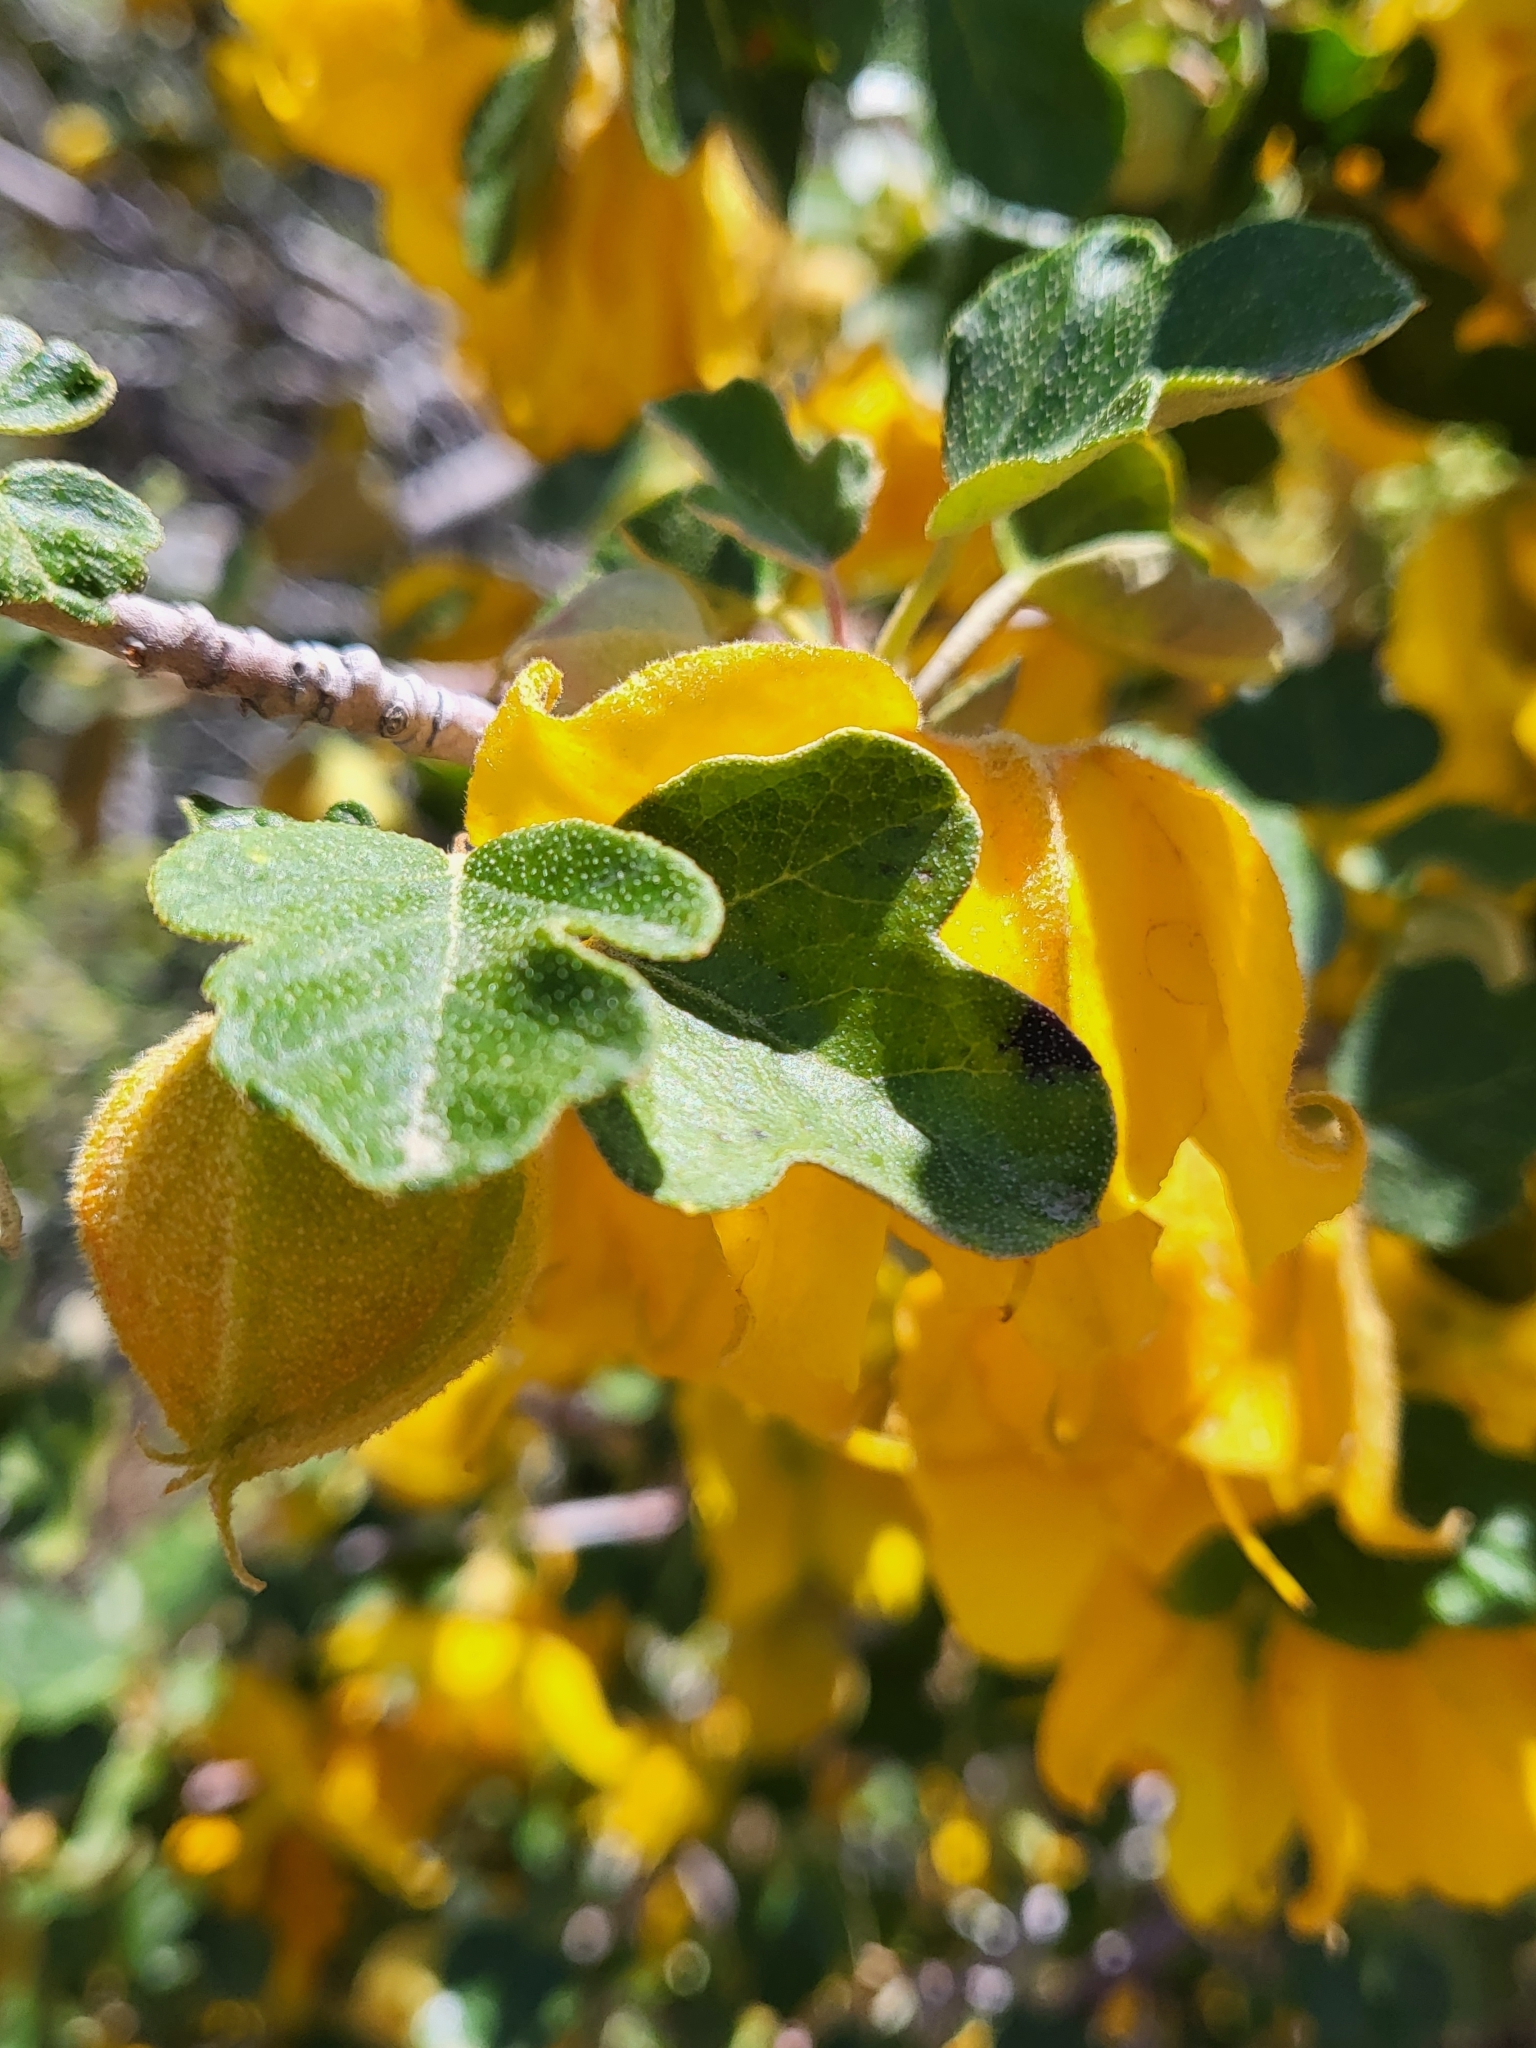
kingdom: Plantae
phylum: Tracheophyta
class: Magnoliopsida
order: Malvales
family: Malvaceae
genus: Fremontodendron
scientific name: Fremontodendron californicum
